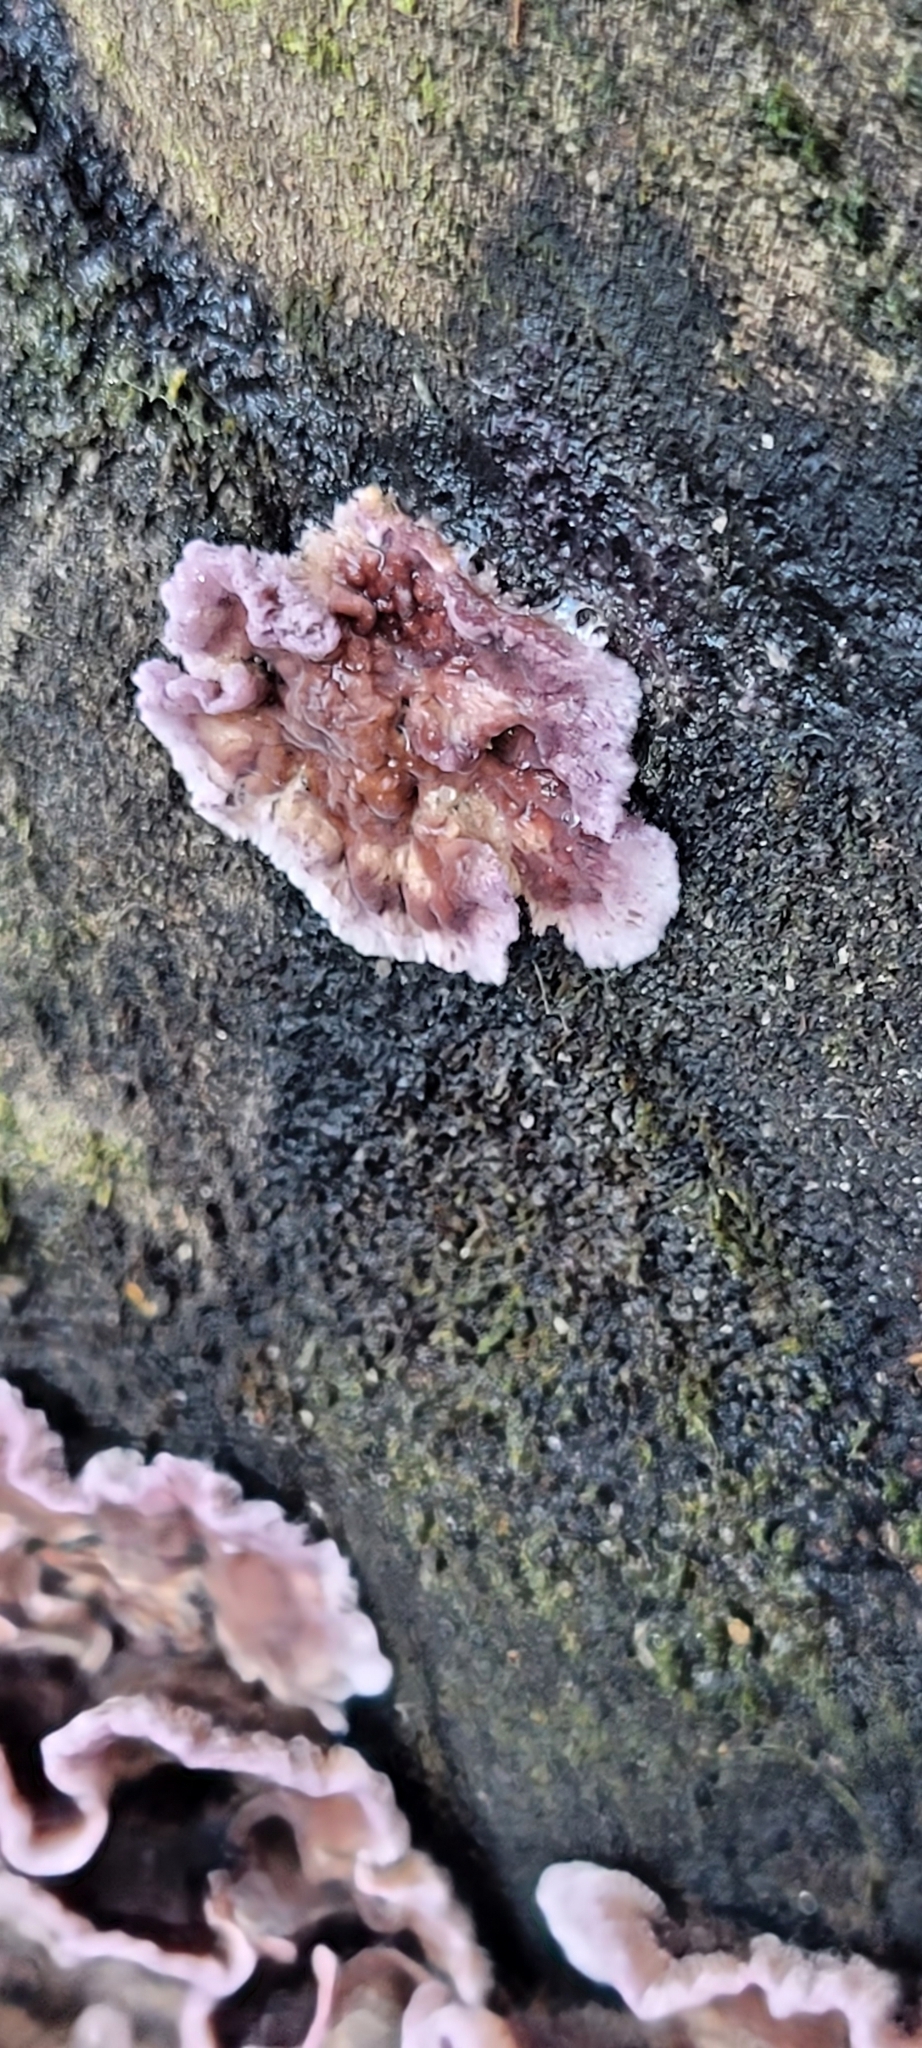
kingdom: Fungi
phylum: Basidiomycota
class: Agaricomycetes
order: Agaricales
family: Cyphellaceae
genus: Chondrostereum
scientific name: Chondrostereum purpureum
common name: Silver leaf disease
